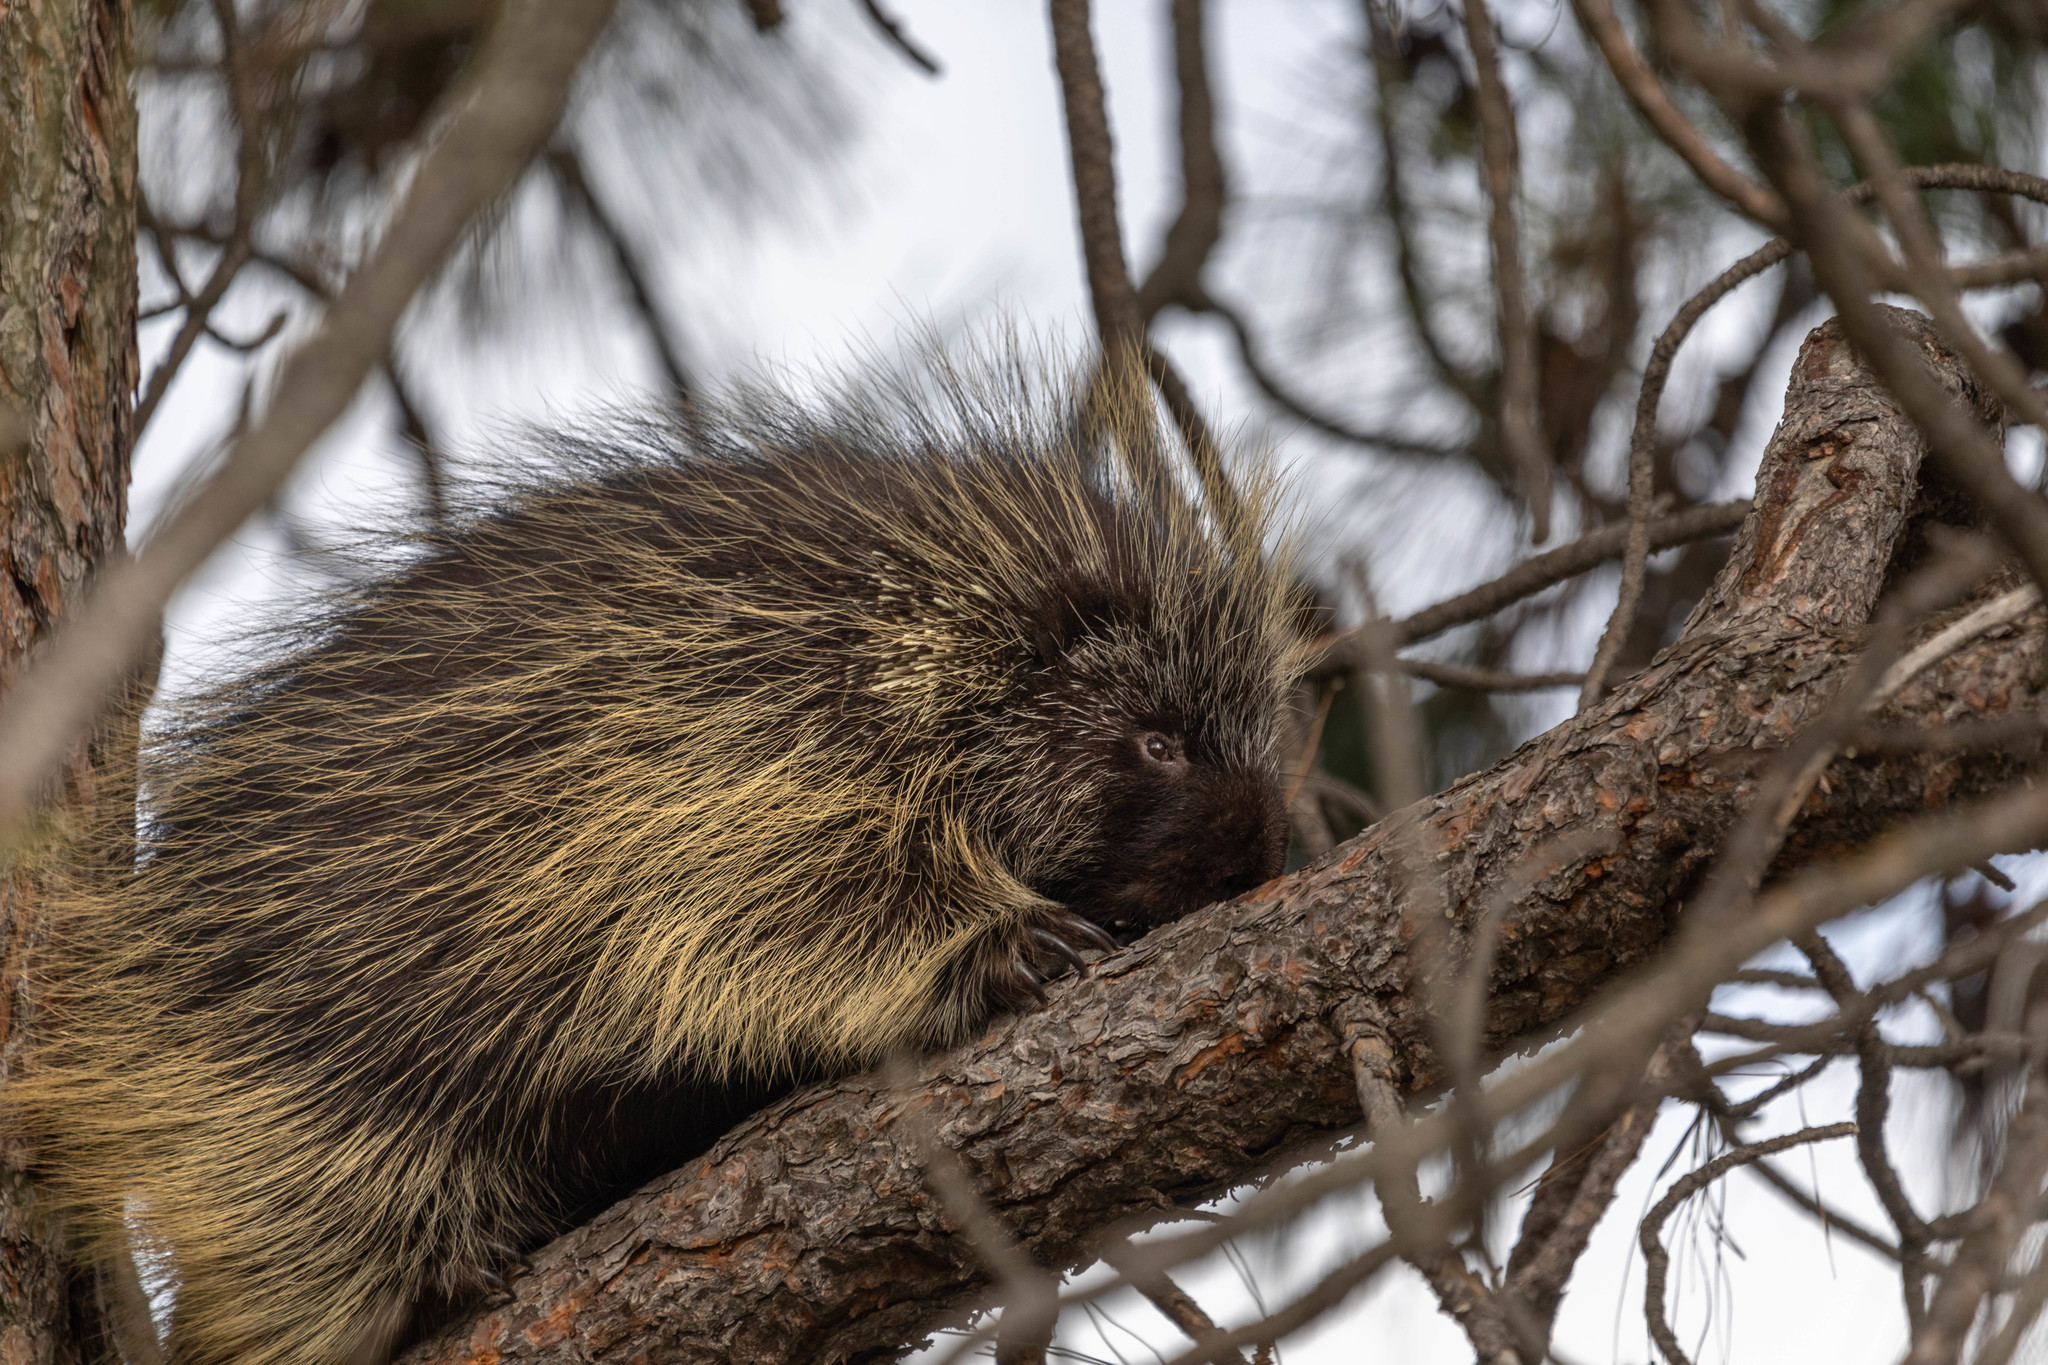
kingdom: Animalia
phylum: Chordata
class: Mammalia
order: Rodentia
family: Erethizontidae
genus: Erethizon
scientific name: Erethizon dorsatus
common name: North american porcupine
